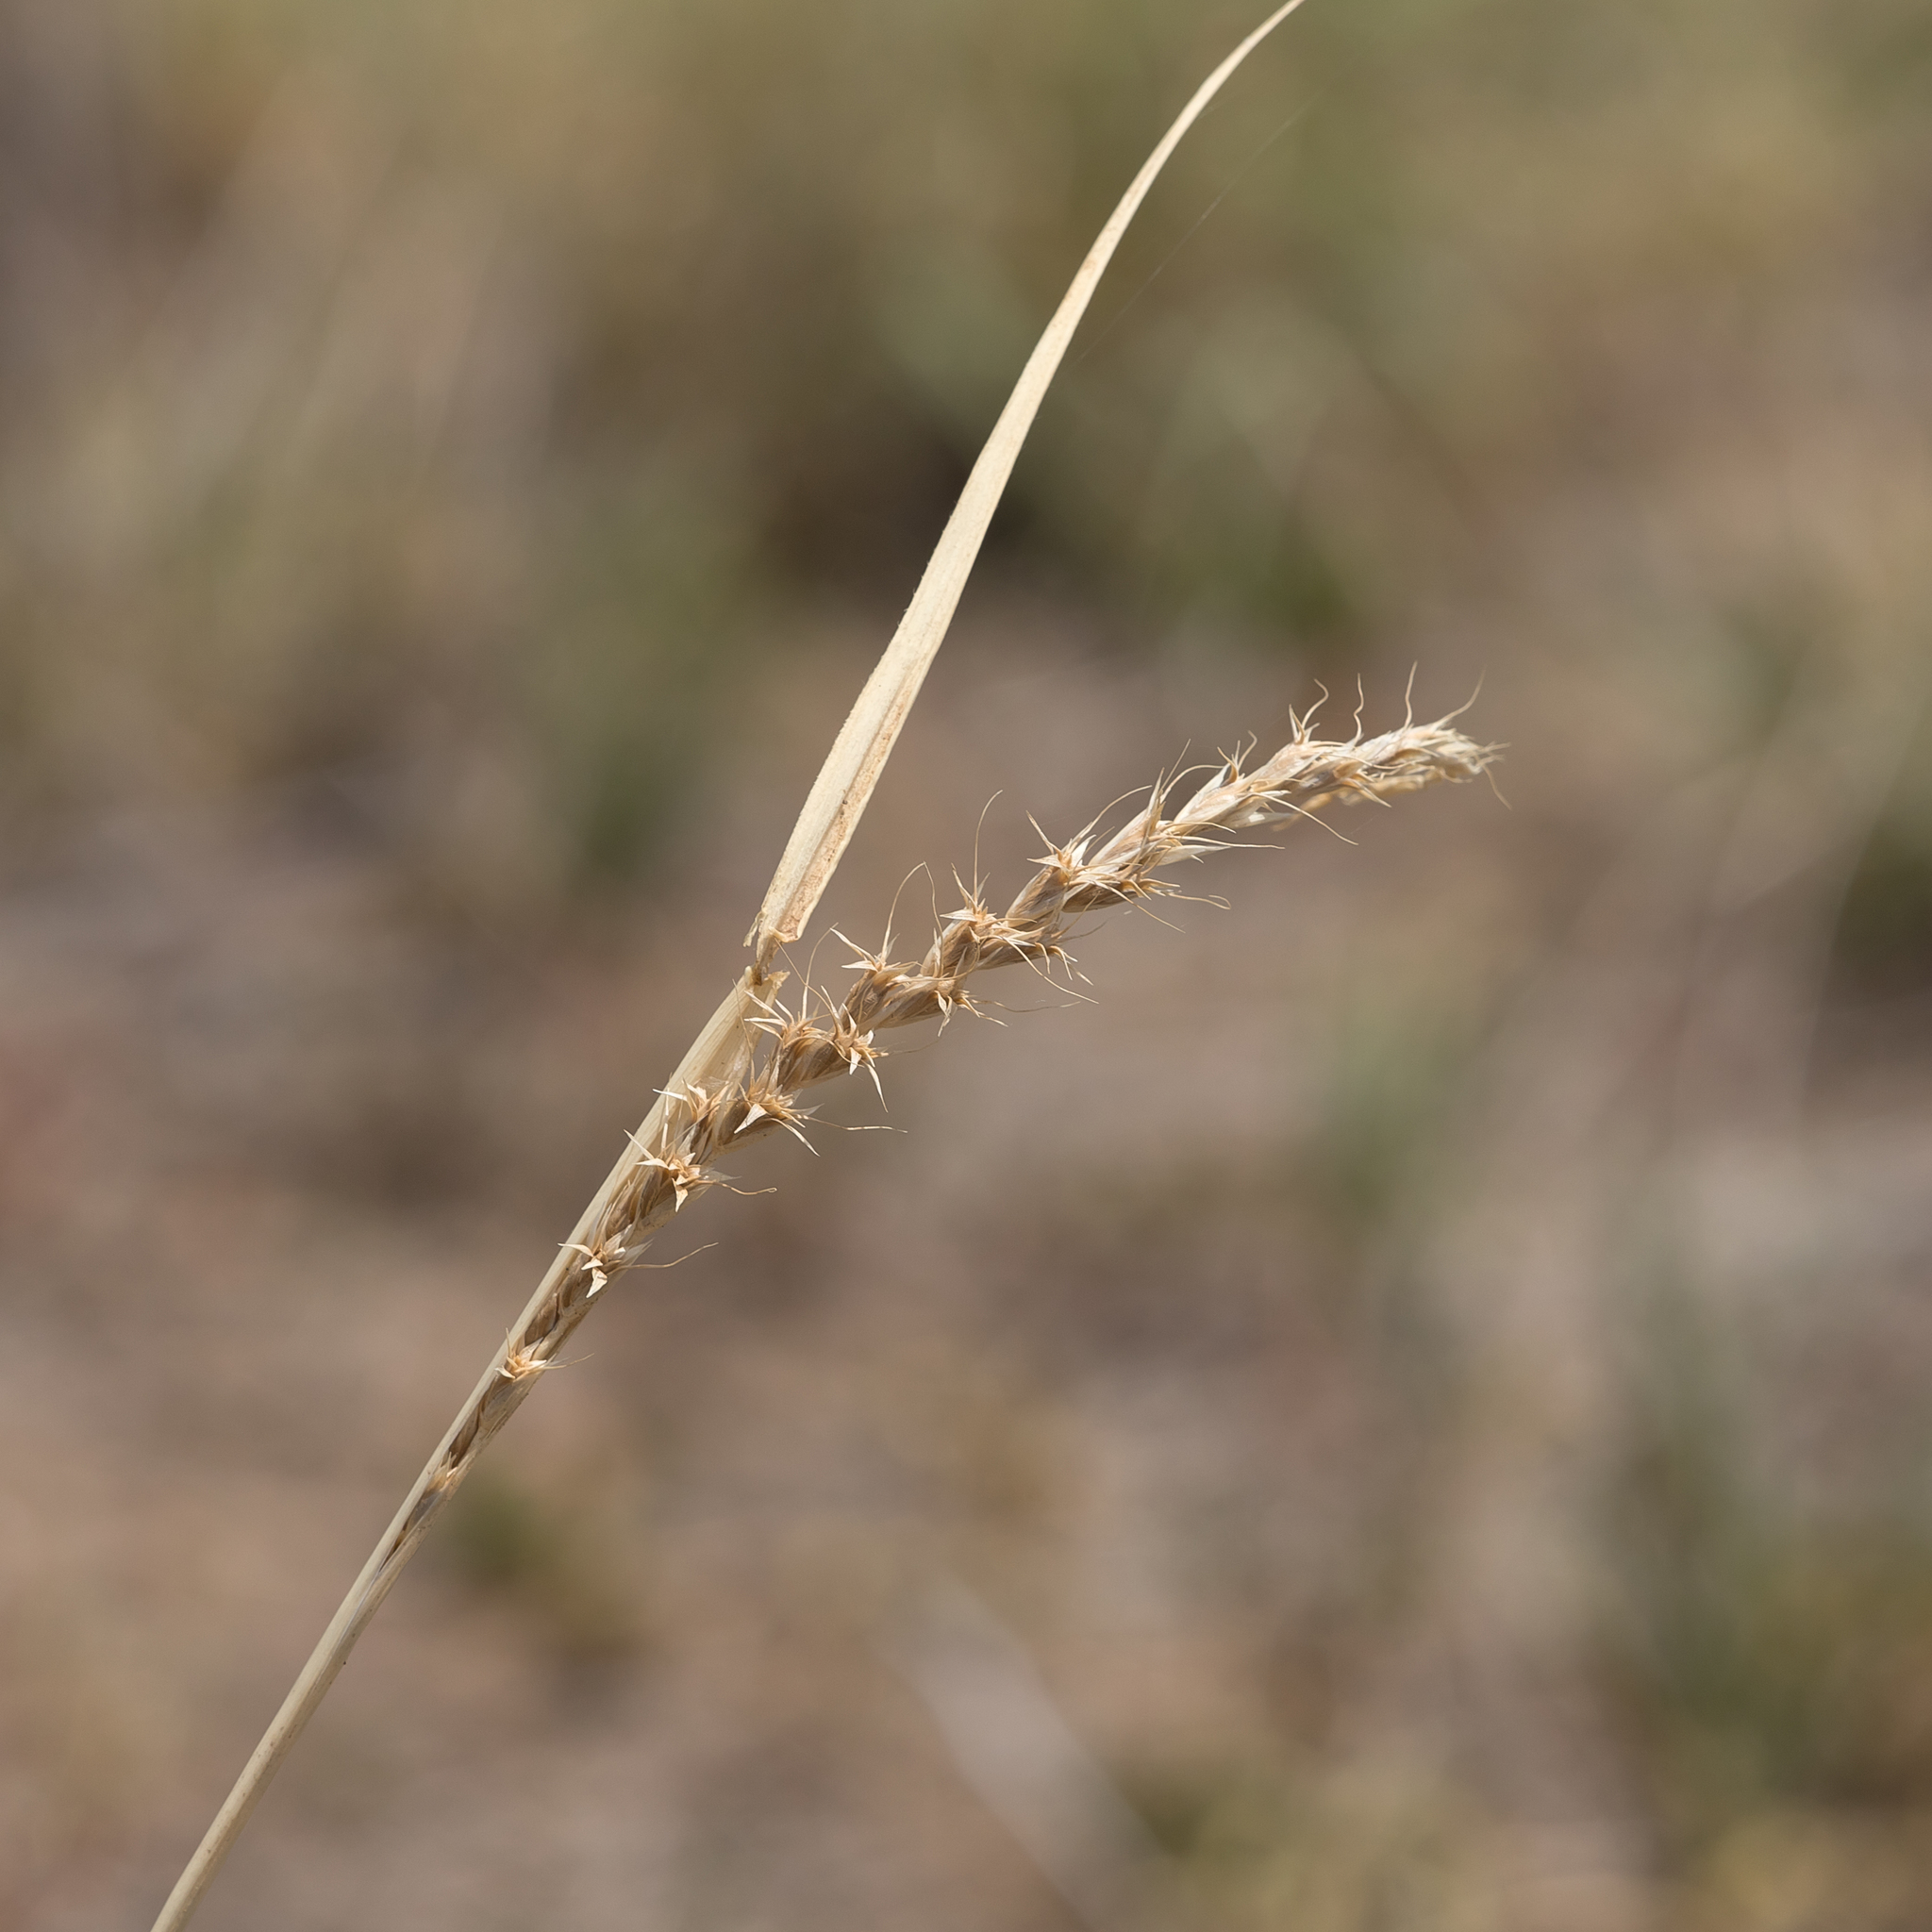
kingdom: Plantae
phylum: Tracheophyta
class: Liliopsida
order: Poales
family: Poaceae
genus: Astrebla
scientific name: Astrebla lappacea
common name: Curly mitchell grass
